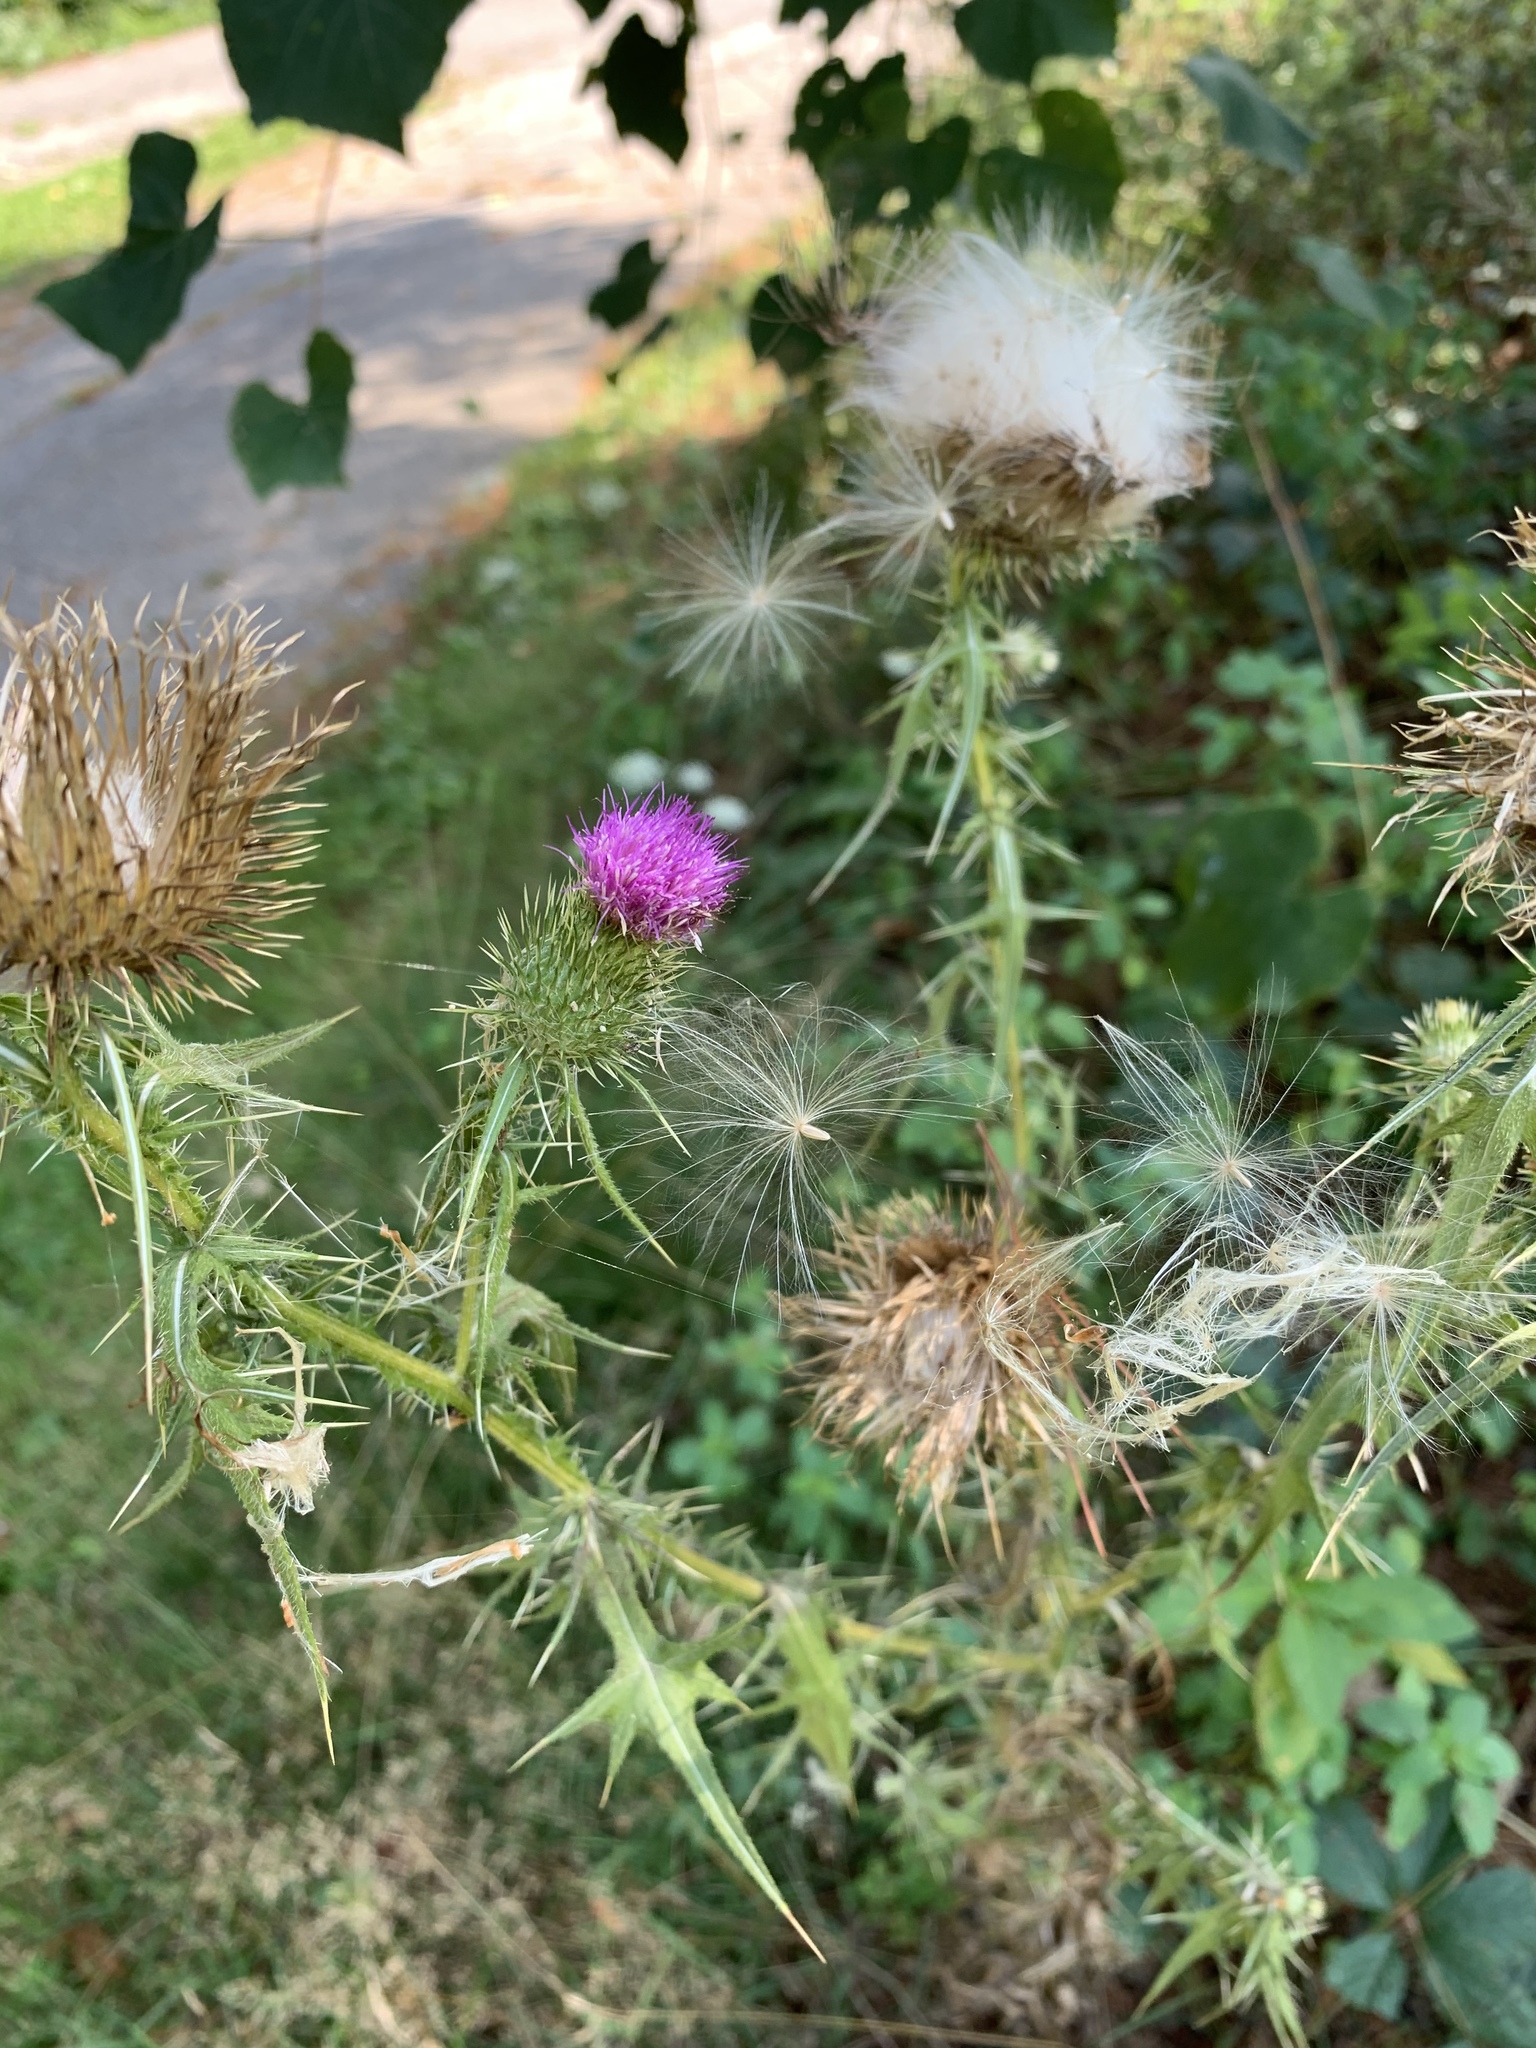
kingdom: Plantae
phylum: Tracheophyta
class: Magnoliopsida
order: Asterales
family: Asteraceae
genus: Cirsium
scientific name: Cirsium vulgare
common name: Bull thistle
